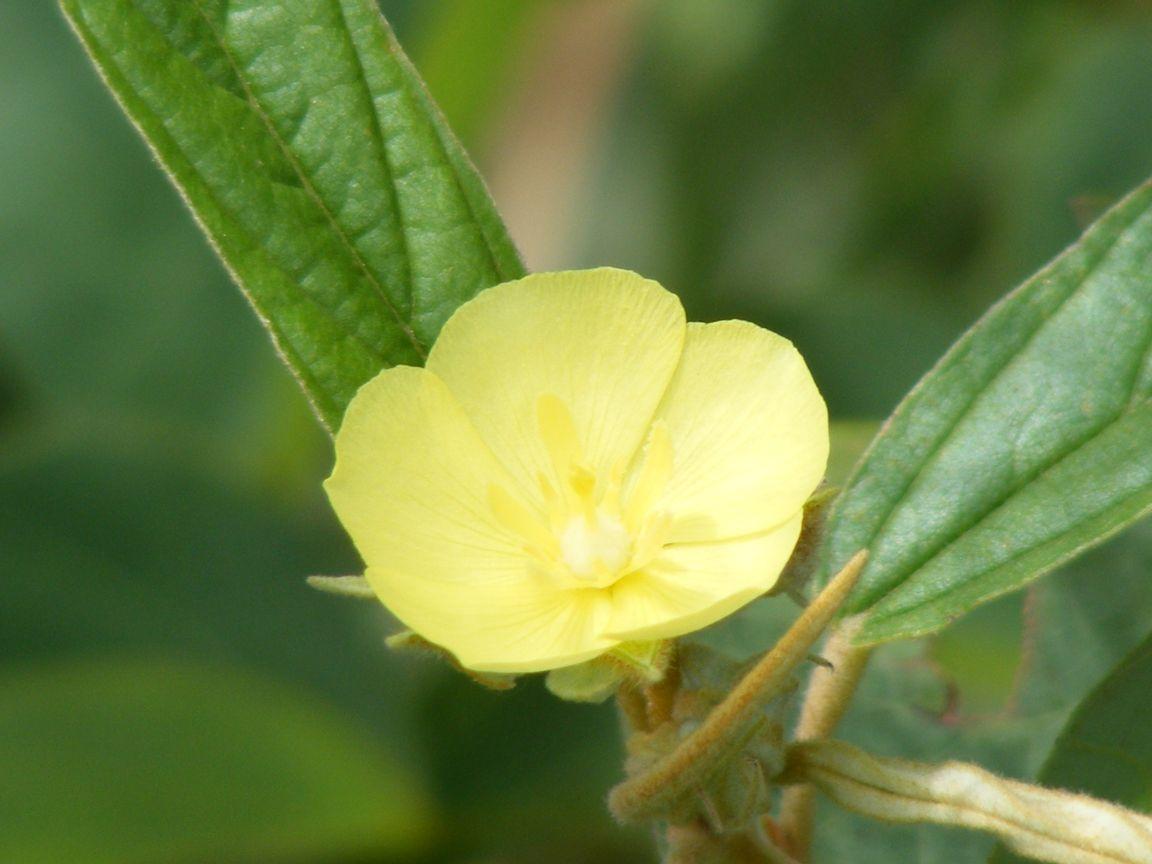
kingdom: Plantae
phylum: Tracheophyta
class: Magnoliopsida
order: Malvales
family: Malvaceae
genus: Melhania
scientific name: Melhania prostrata
